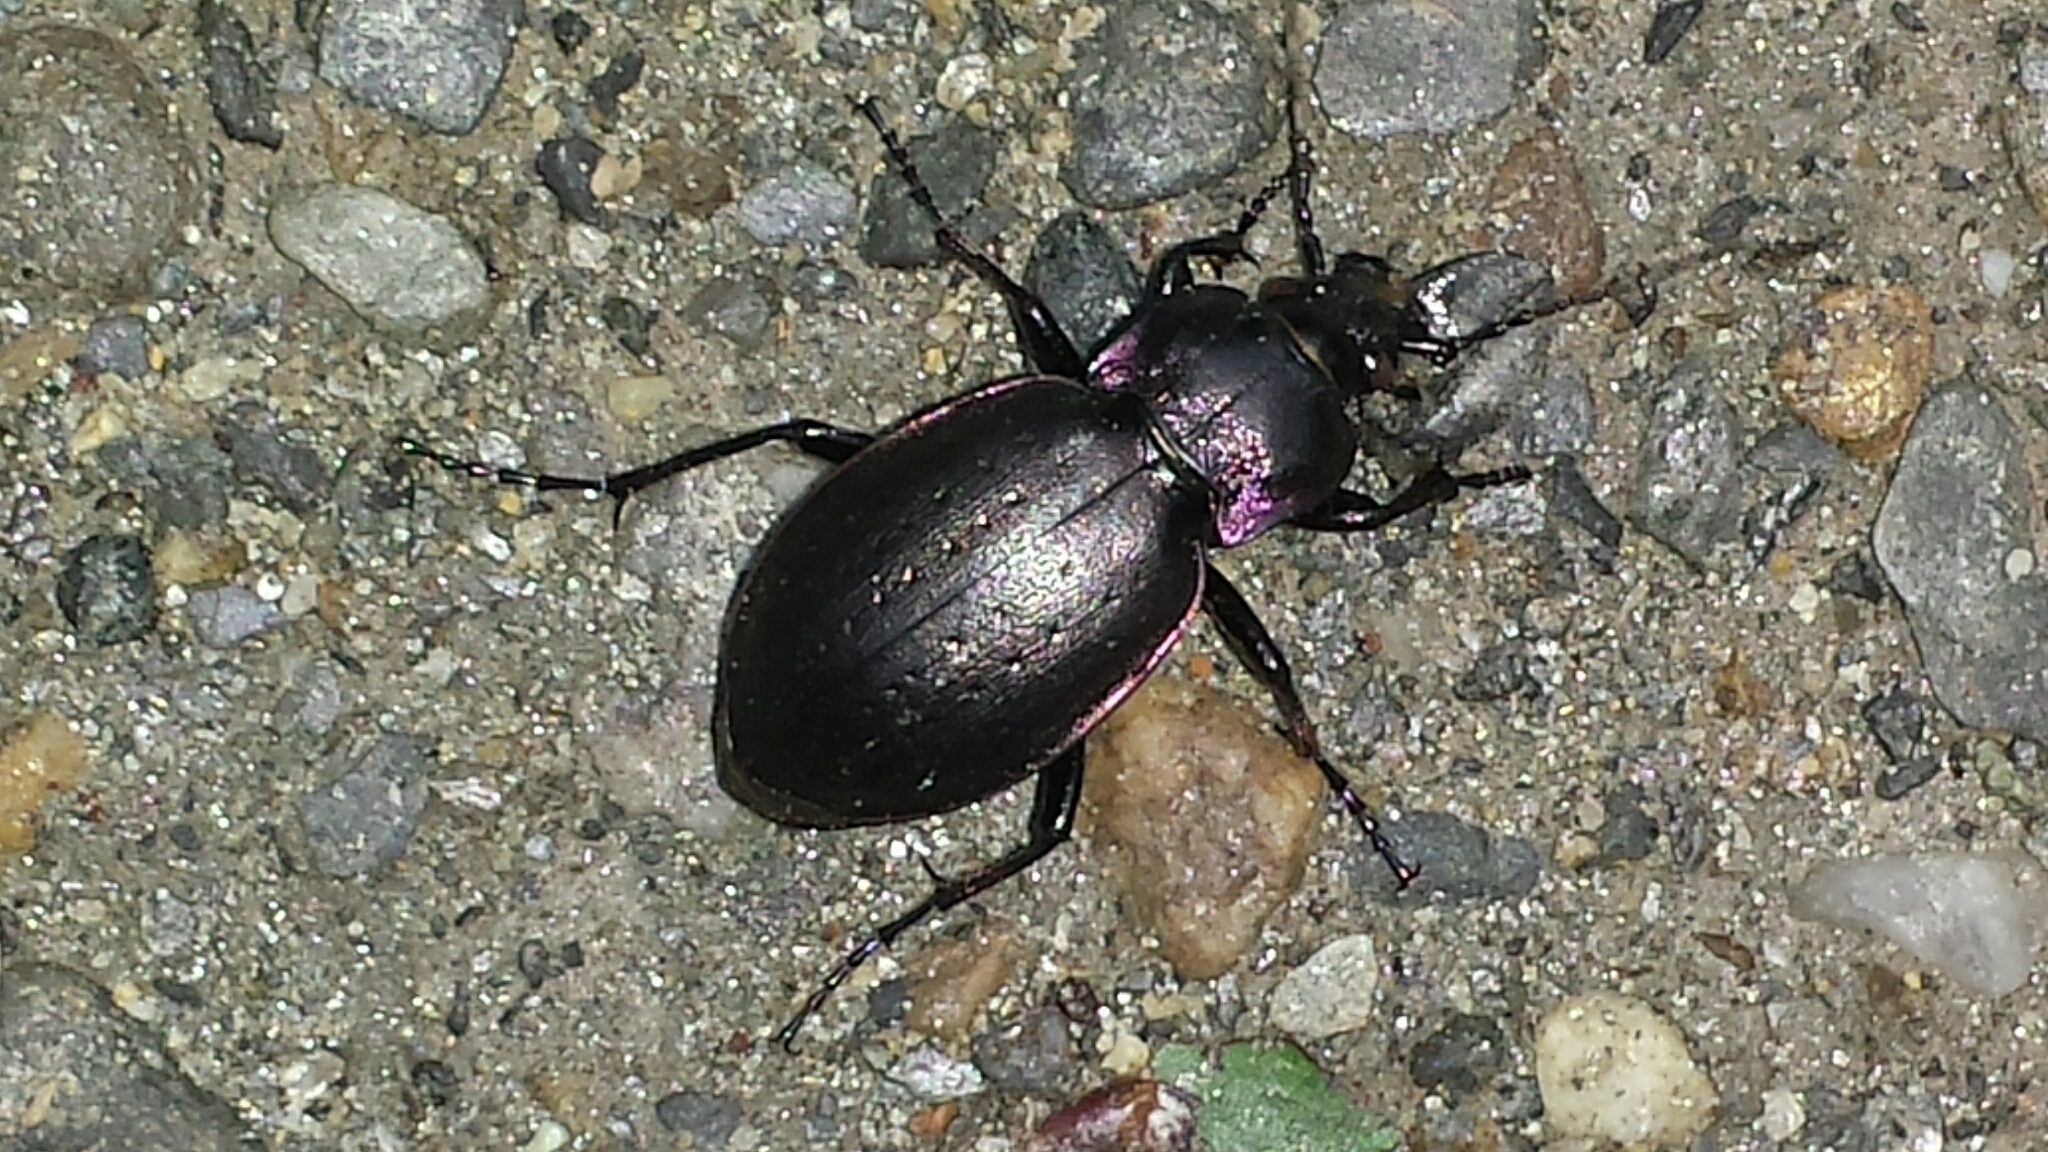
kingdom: Animalia
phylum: Arthropoda
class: Insecta
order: Coleoptera
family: Carabidae
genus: Carabus
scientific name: Carabus nemoralis
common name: European ground beetle
